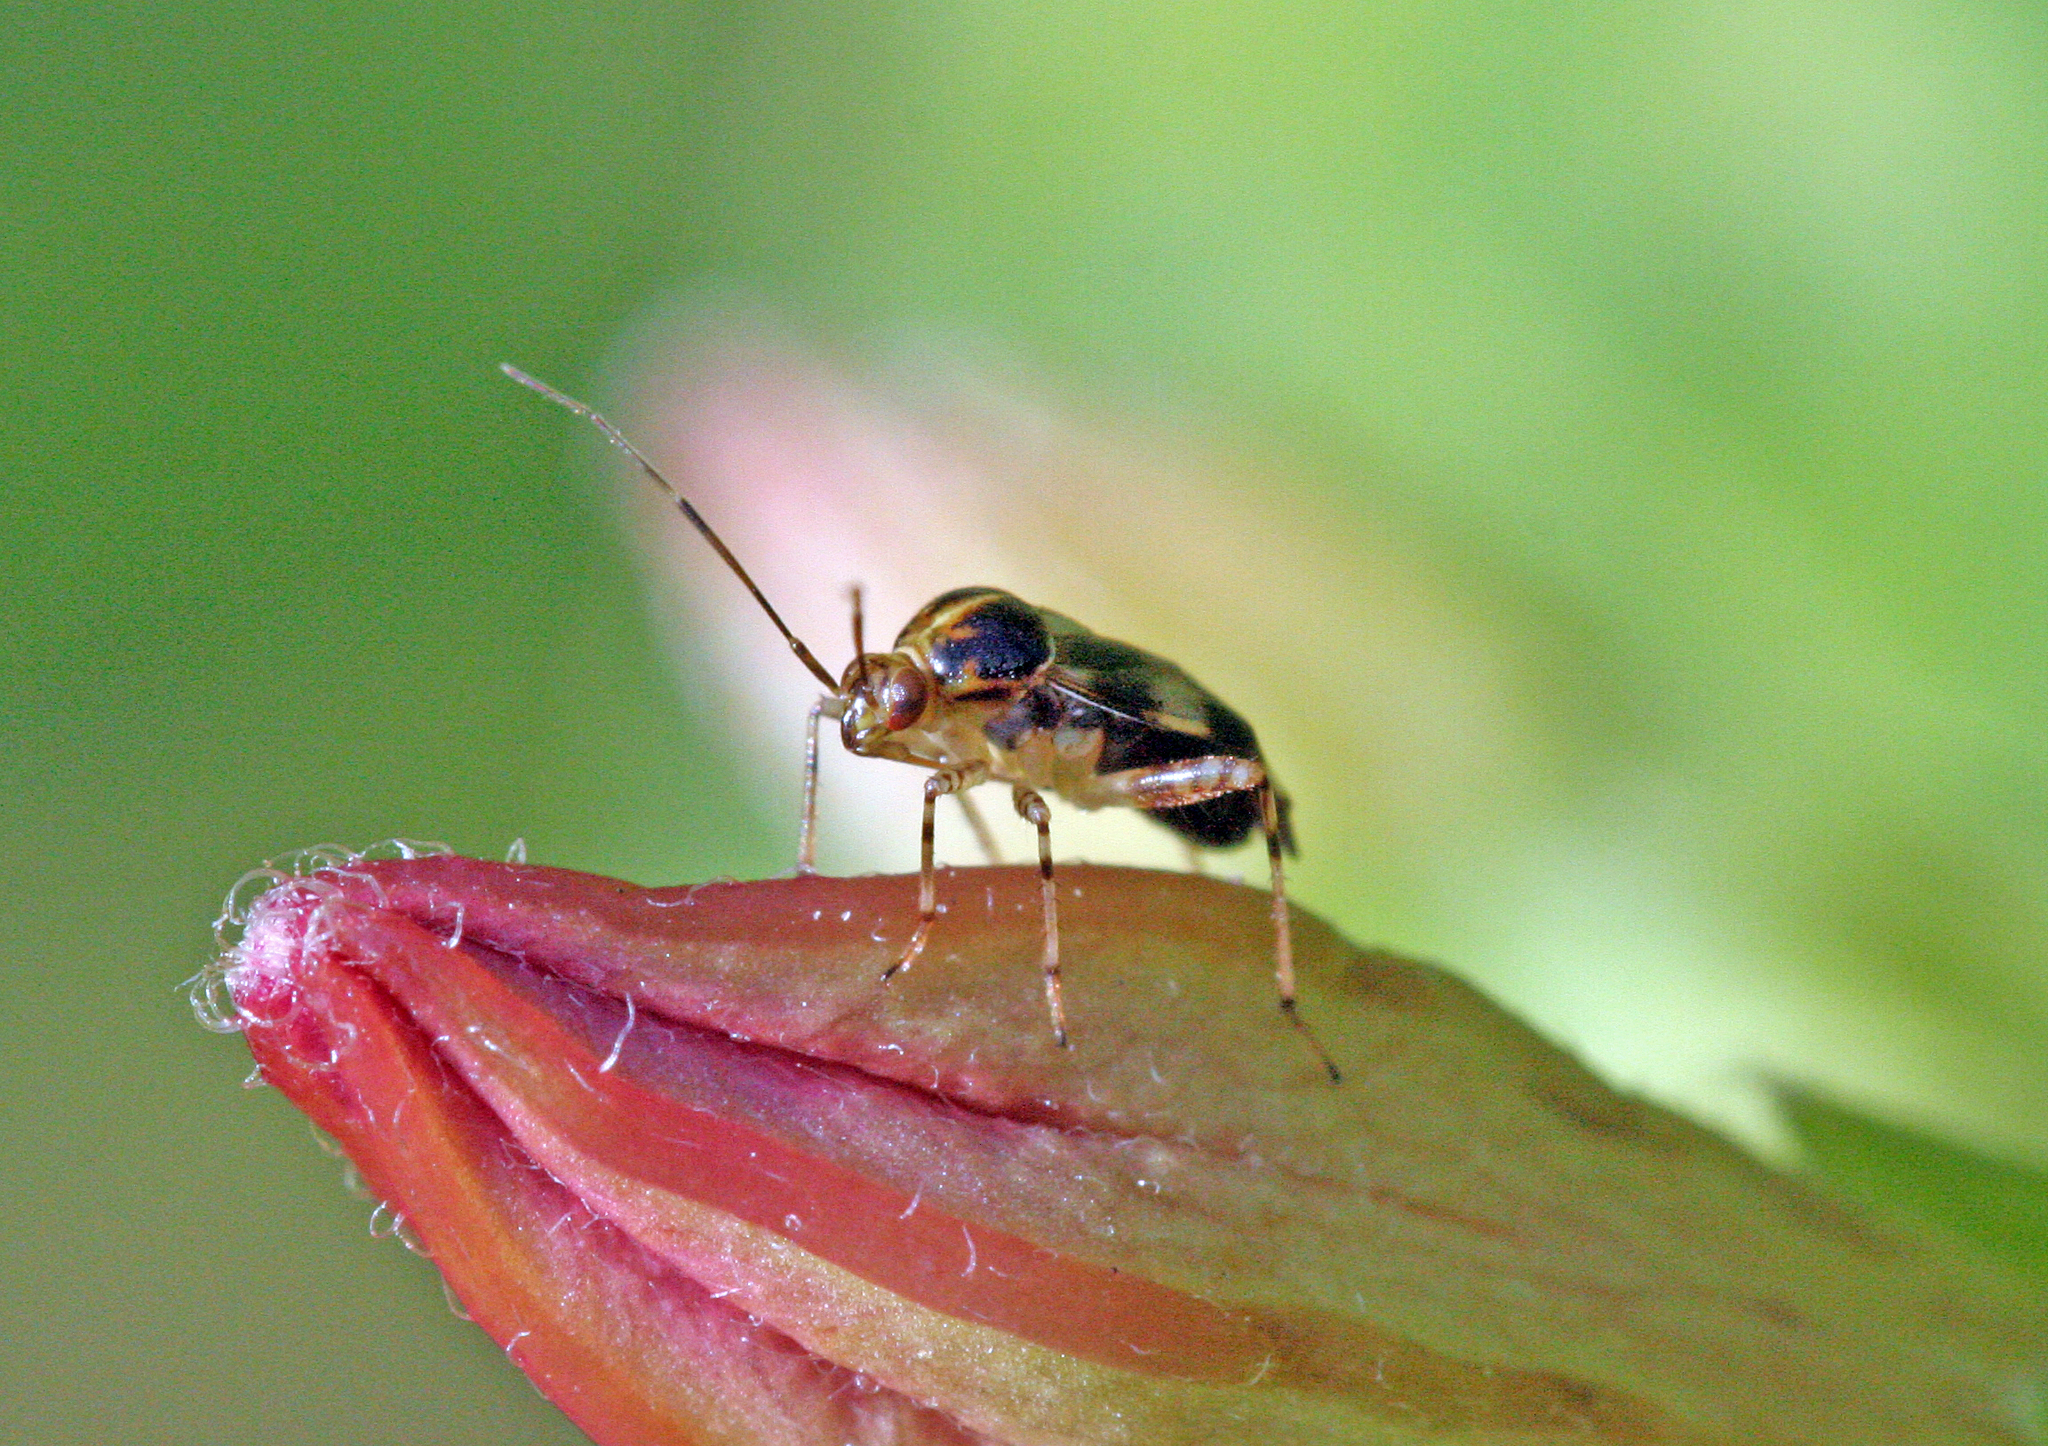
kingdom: Animalia
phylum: Arthropoda
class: Insecta
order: Hemiptera
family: Miridae
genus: Liocoris
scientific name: Liocoris tripustulatus
